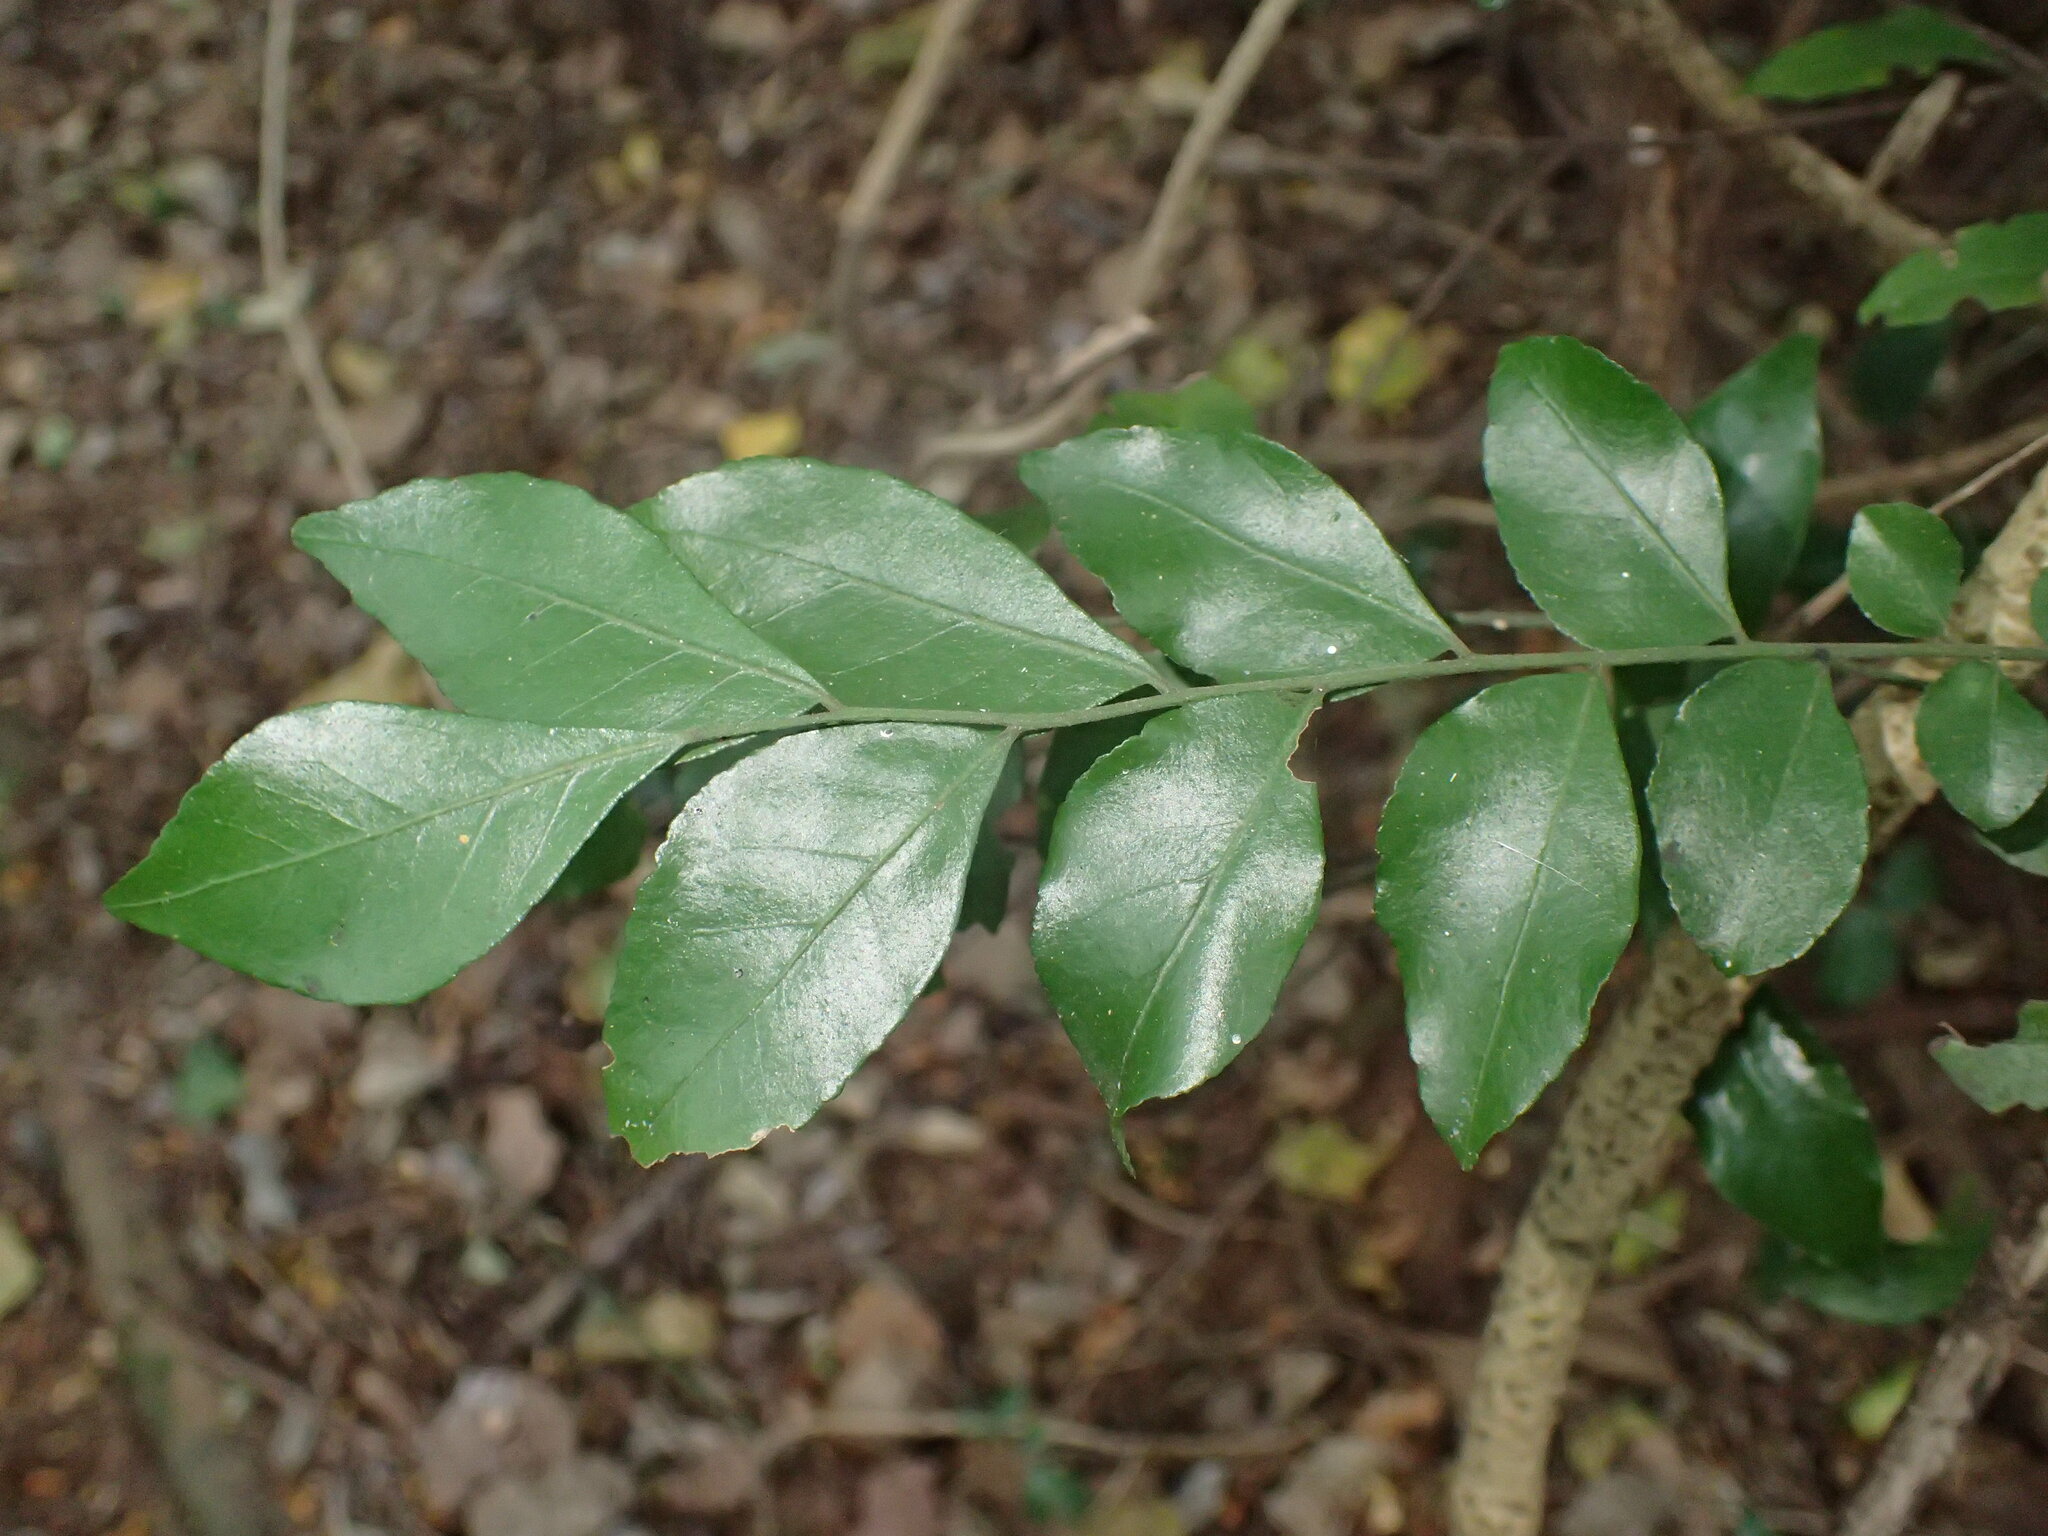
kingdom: Plantae
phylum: Tracheophyta
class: Magnoliopsida
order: Sapindales
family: Rutaceae
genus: Clausena
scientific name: Clausena anisata
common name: Horsewood
